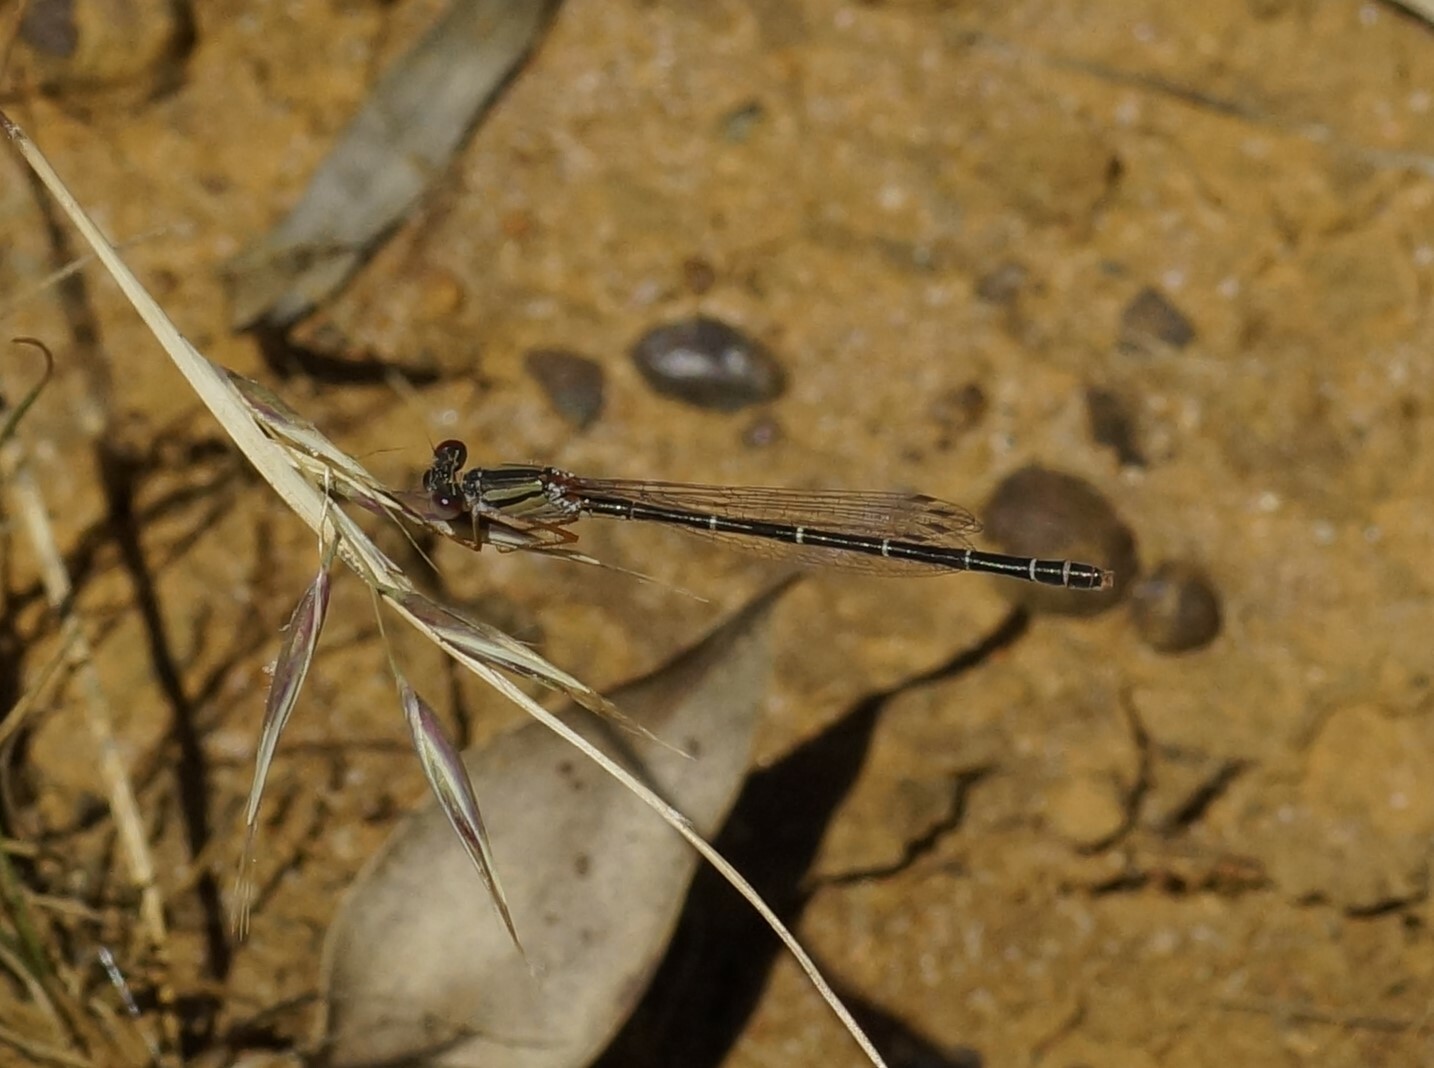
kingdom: Animalia
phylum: Arthropoda
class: Insecta
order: Odonata
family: Coenagrionidae
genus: Xanthagrion
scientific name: Xanthagrion erythroneurum
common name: Red and blue damsel
